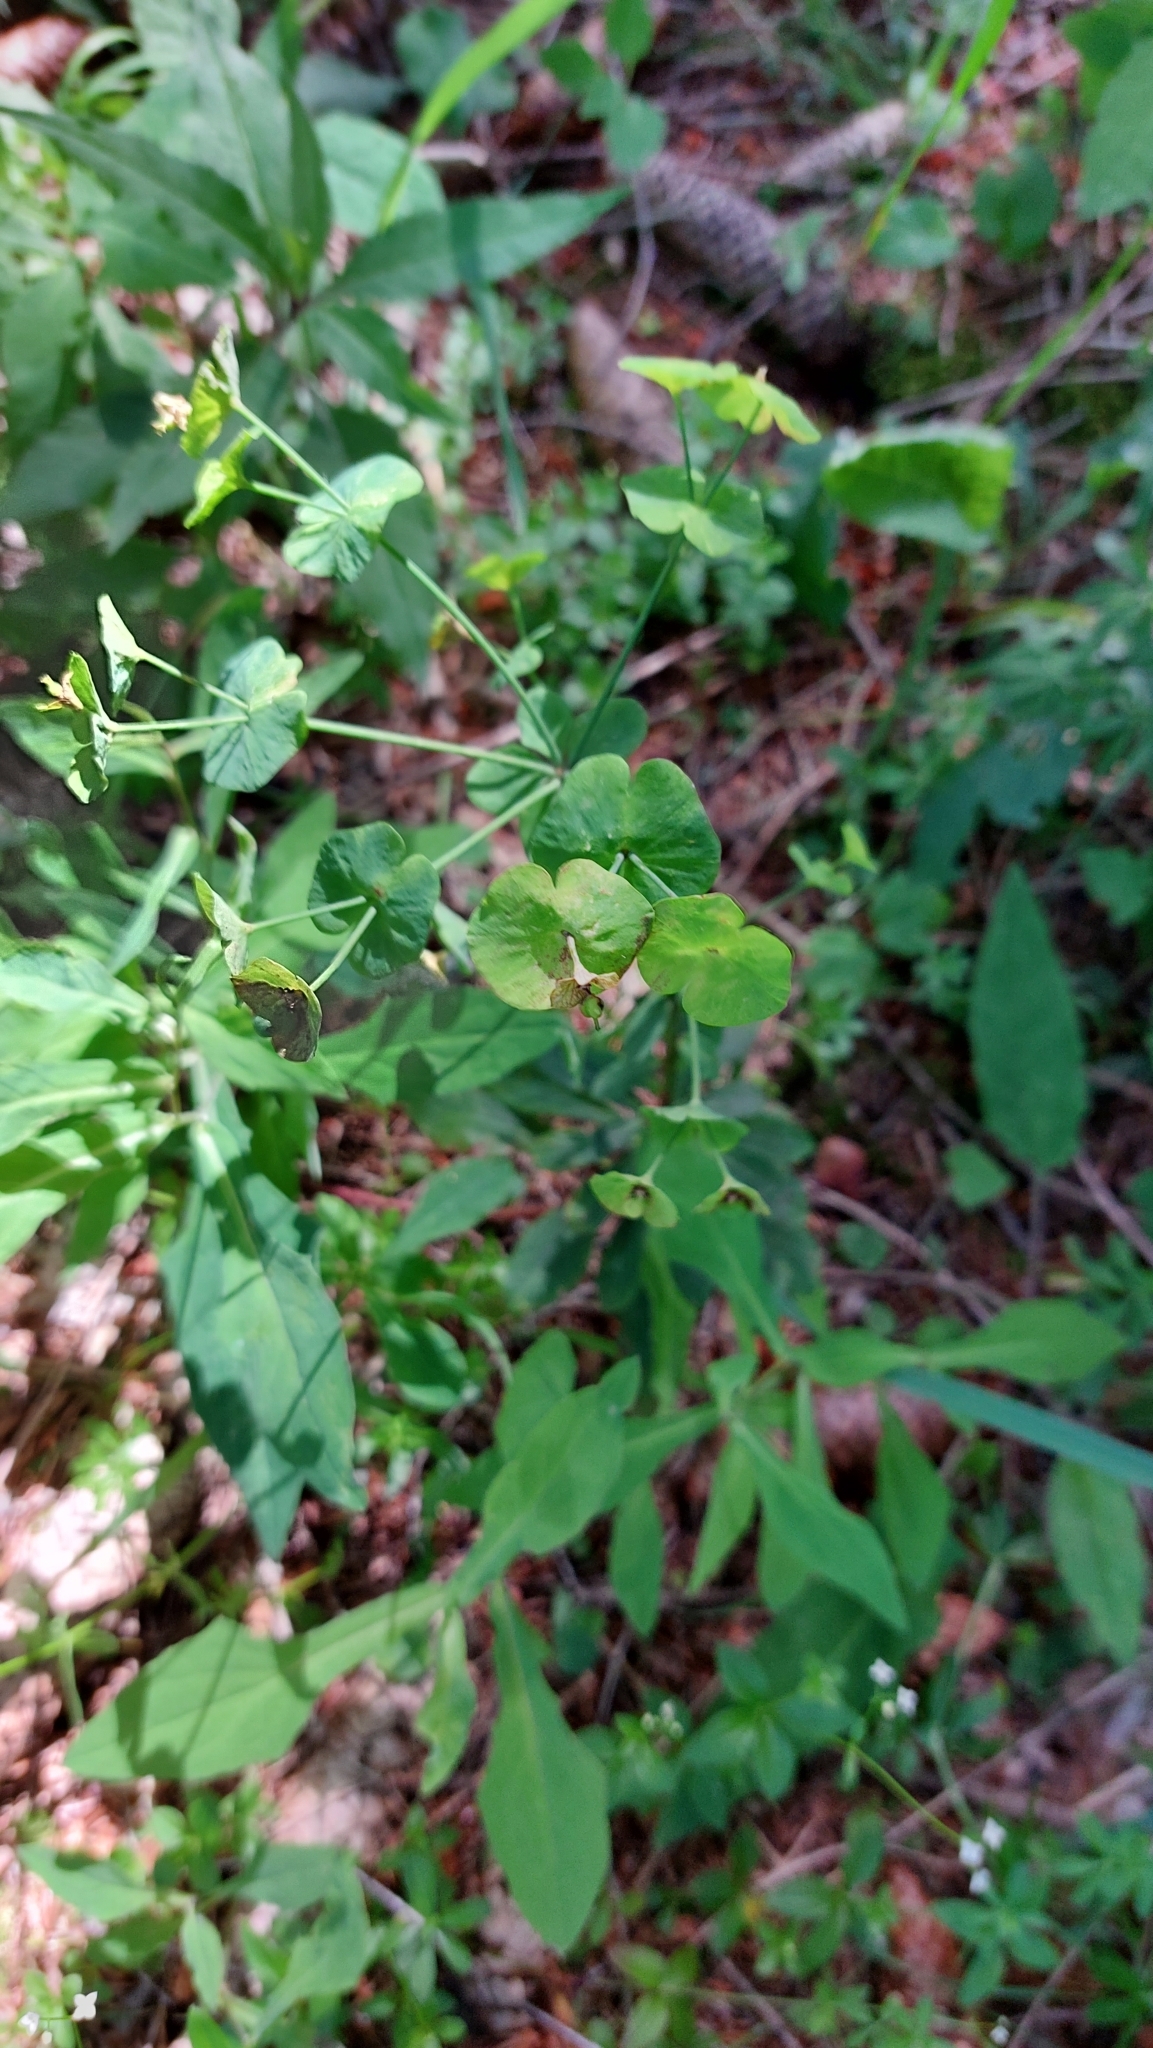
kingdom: Plantae
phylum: Tracheophyta
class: Magnoliopsida
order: Malpighiales
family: Euphorbiaceae
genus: Euphorbia
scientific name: Euphorbia amygdaloides
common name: Wood spurge
